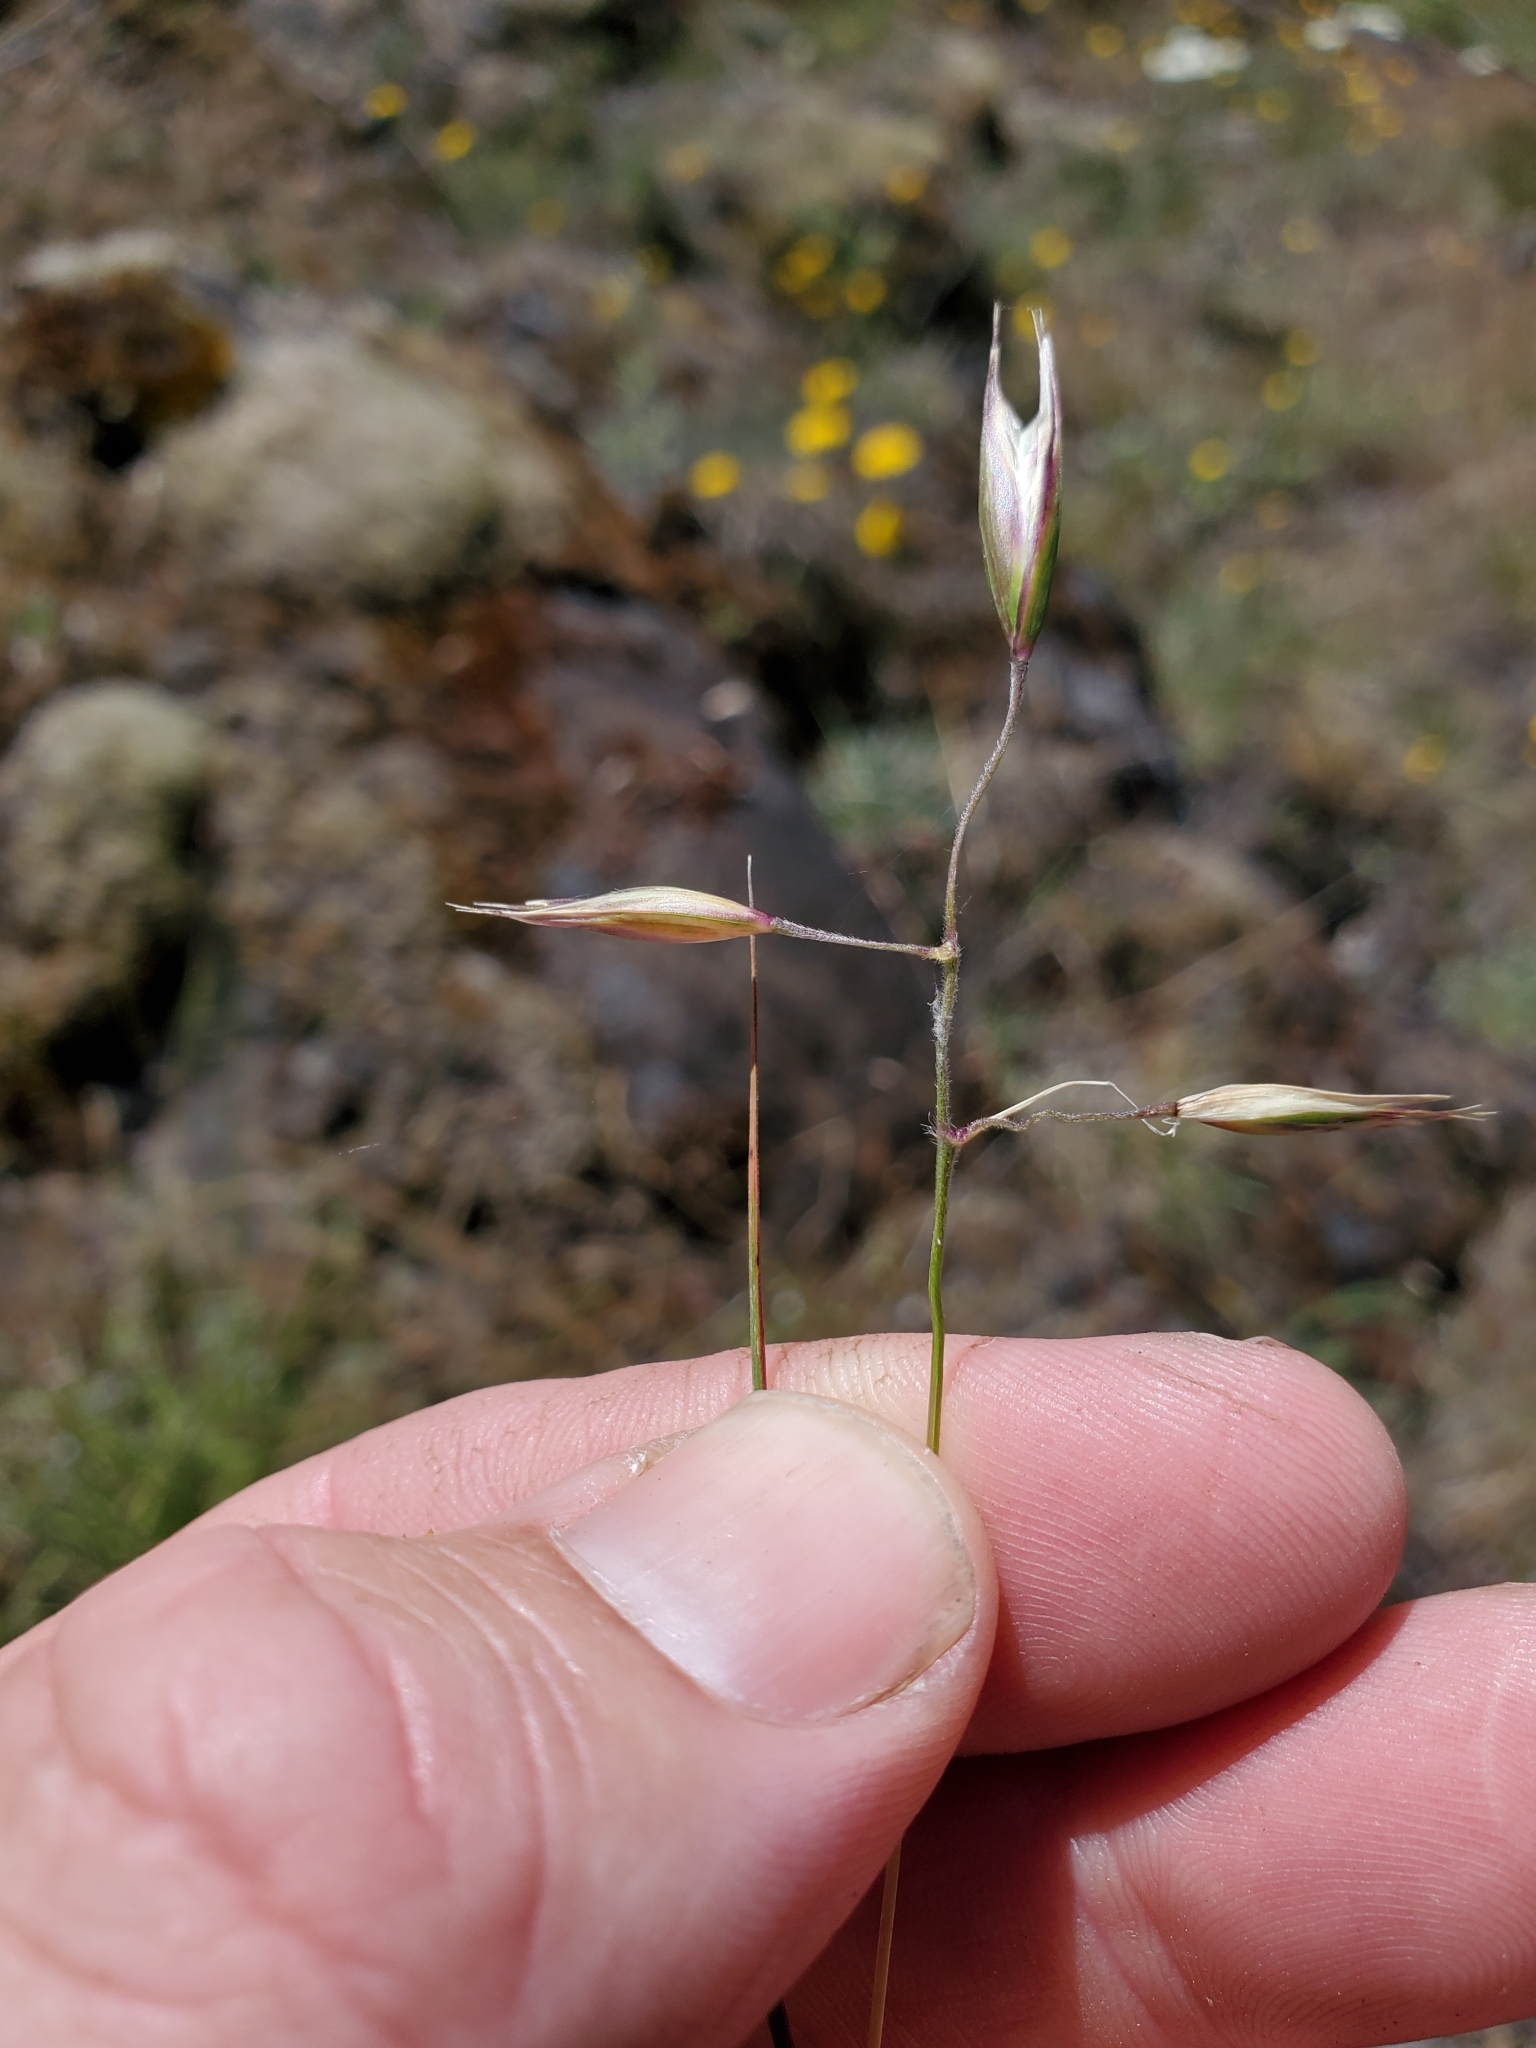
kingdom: Plantae
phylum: Tracheophyta
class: Liliopsida
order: Poales
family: Poaceae
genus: Danthonia
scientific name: Danthonia californica
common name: California oat grass
